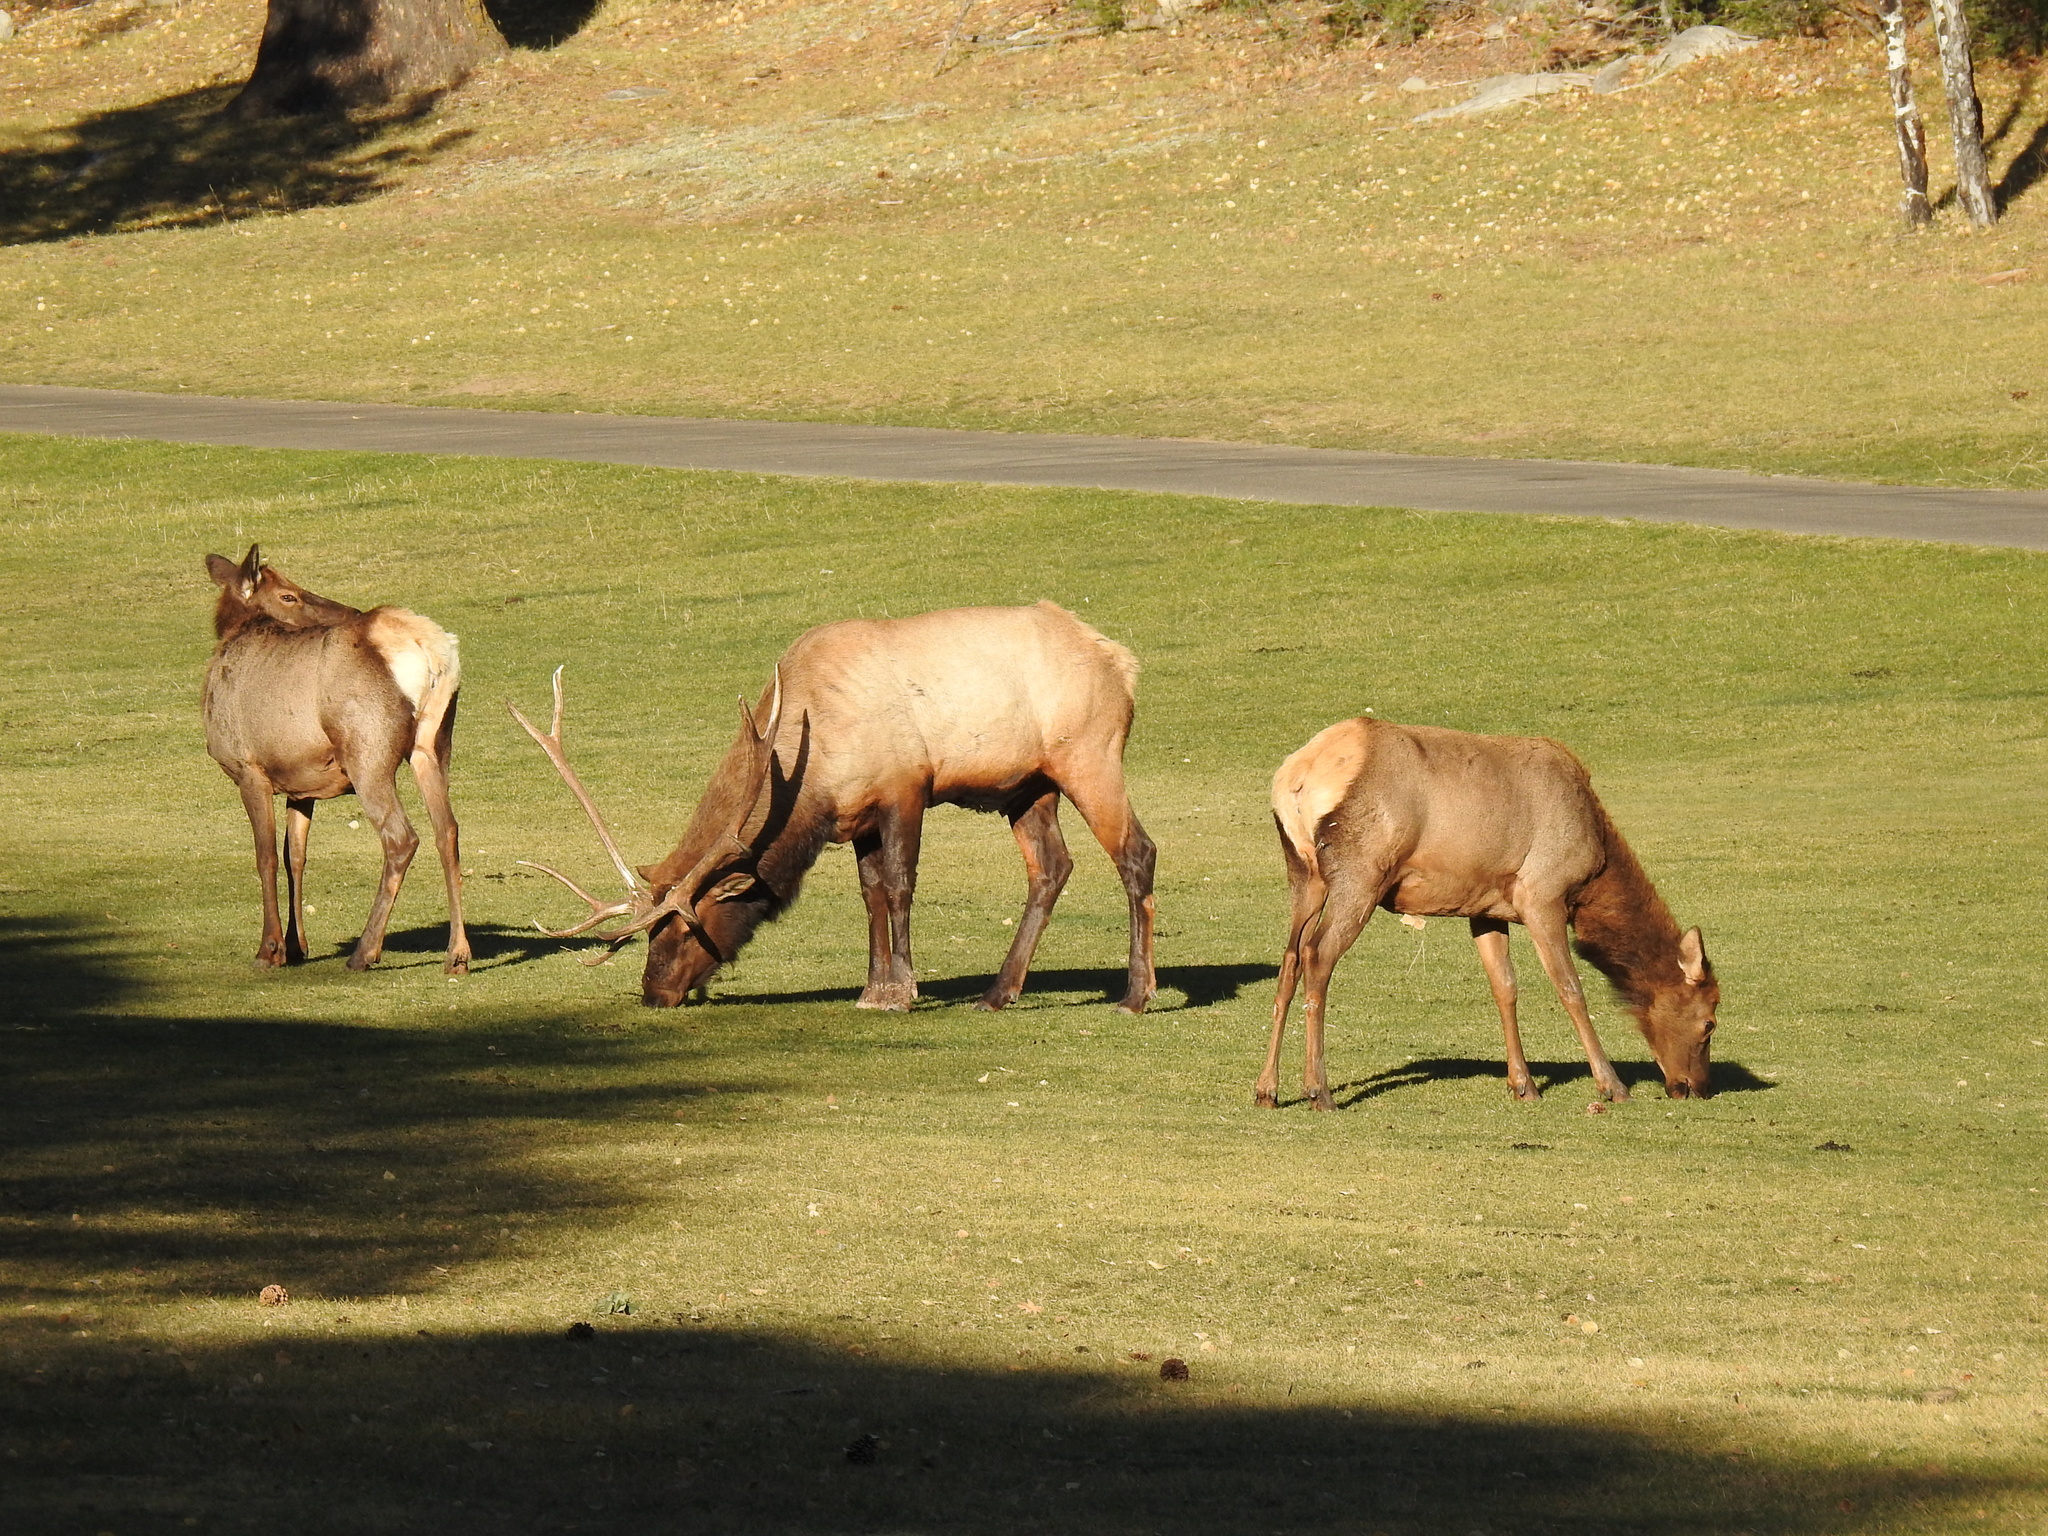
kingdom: Animalia
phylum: Chordata
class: Mammalia
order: Artiodactyla
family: Cervidae
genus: Cervus
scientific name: Cervus elaphus
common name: Red deer
